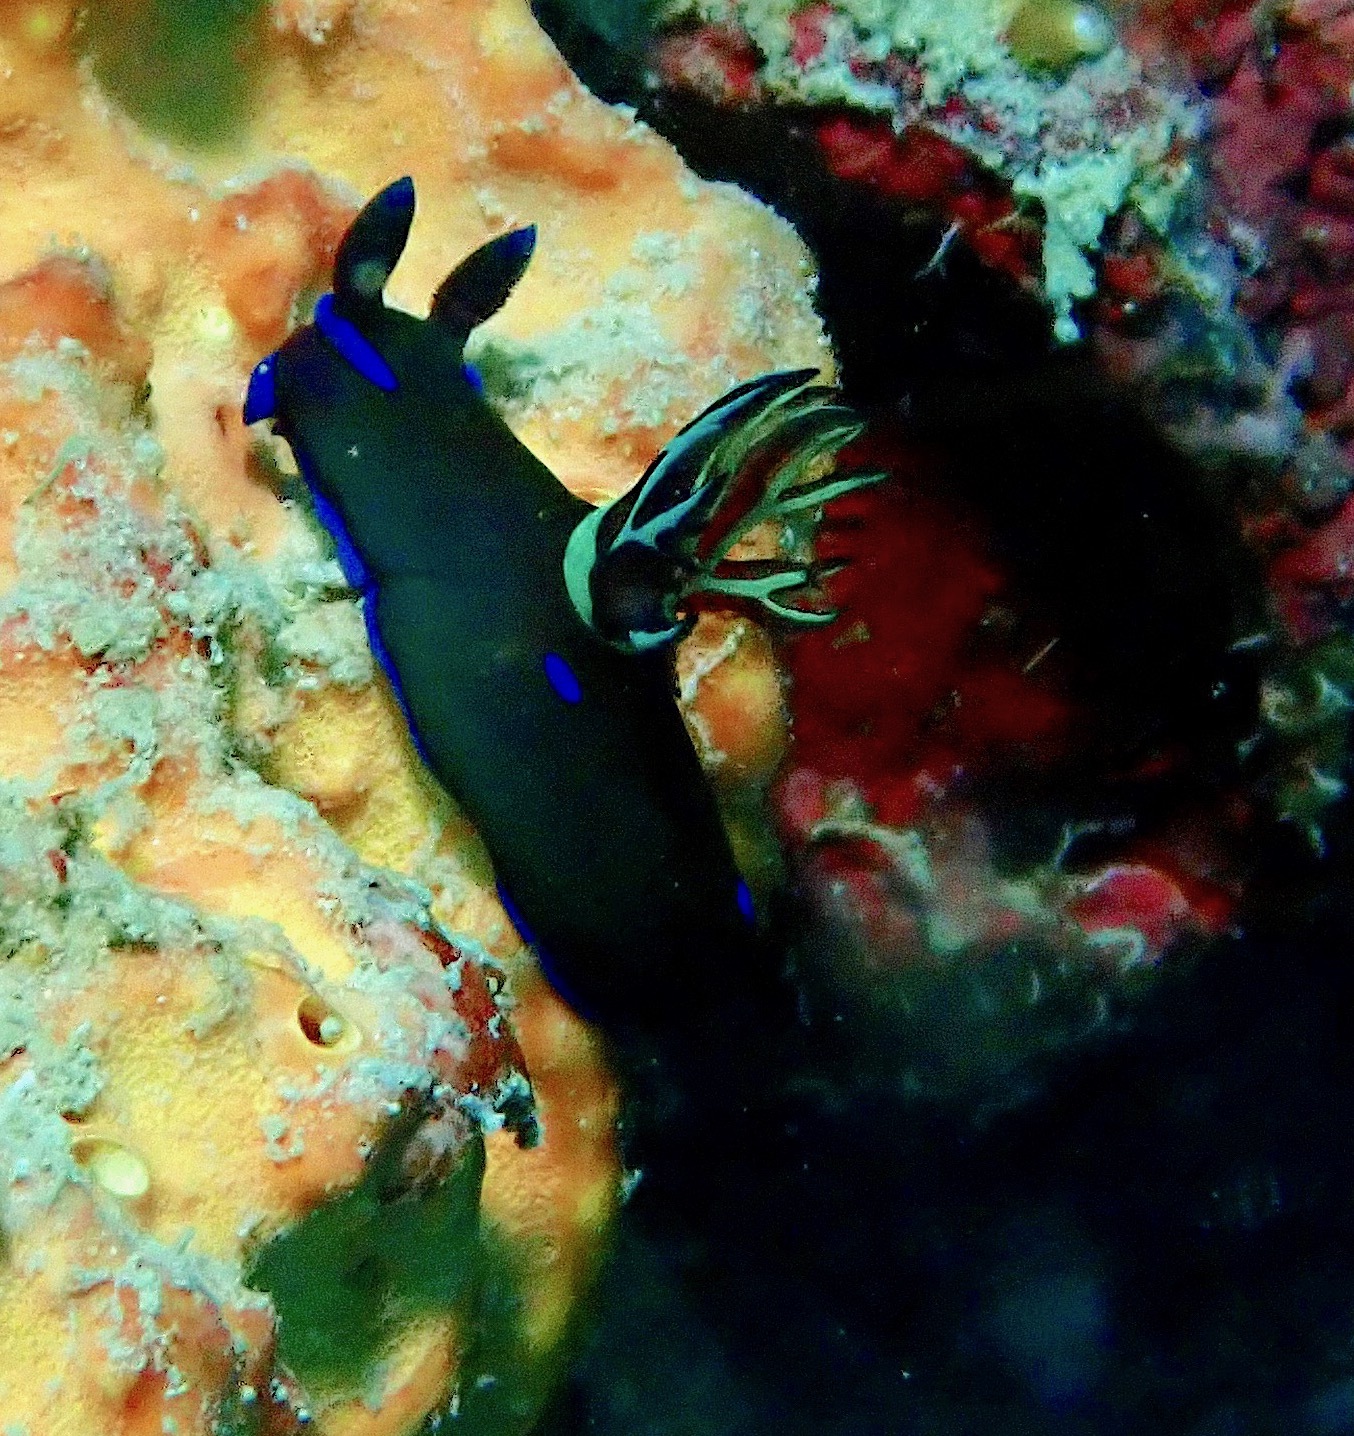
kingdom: Animalia
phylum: Mollusca
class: Gastropoda
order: Nudibranchia
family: Polyceridae
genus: Tambja
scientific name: Tambja morosa
